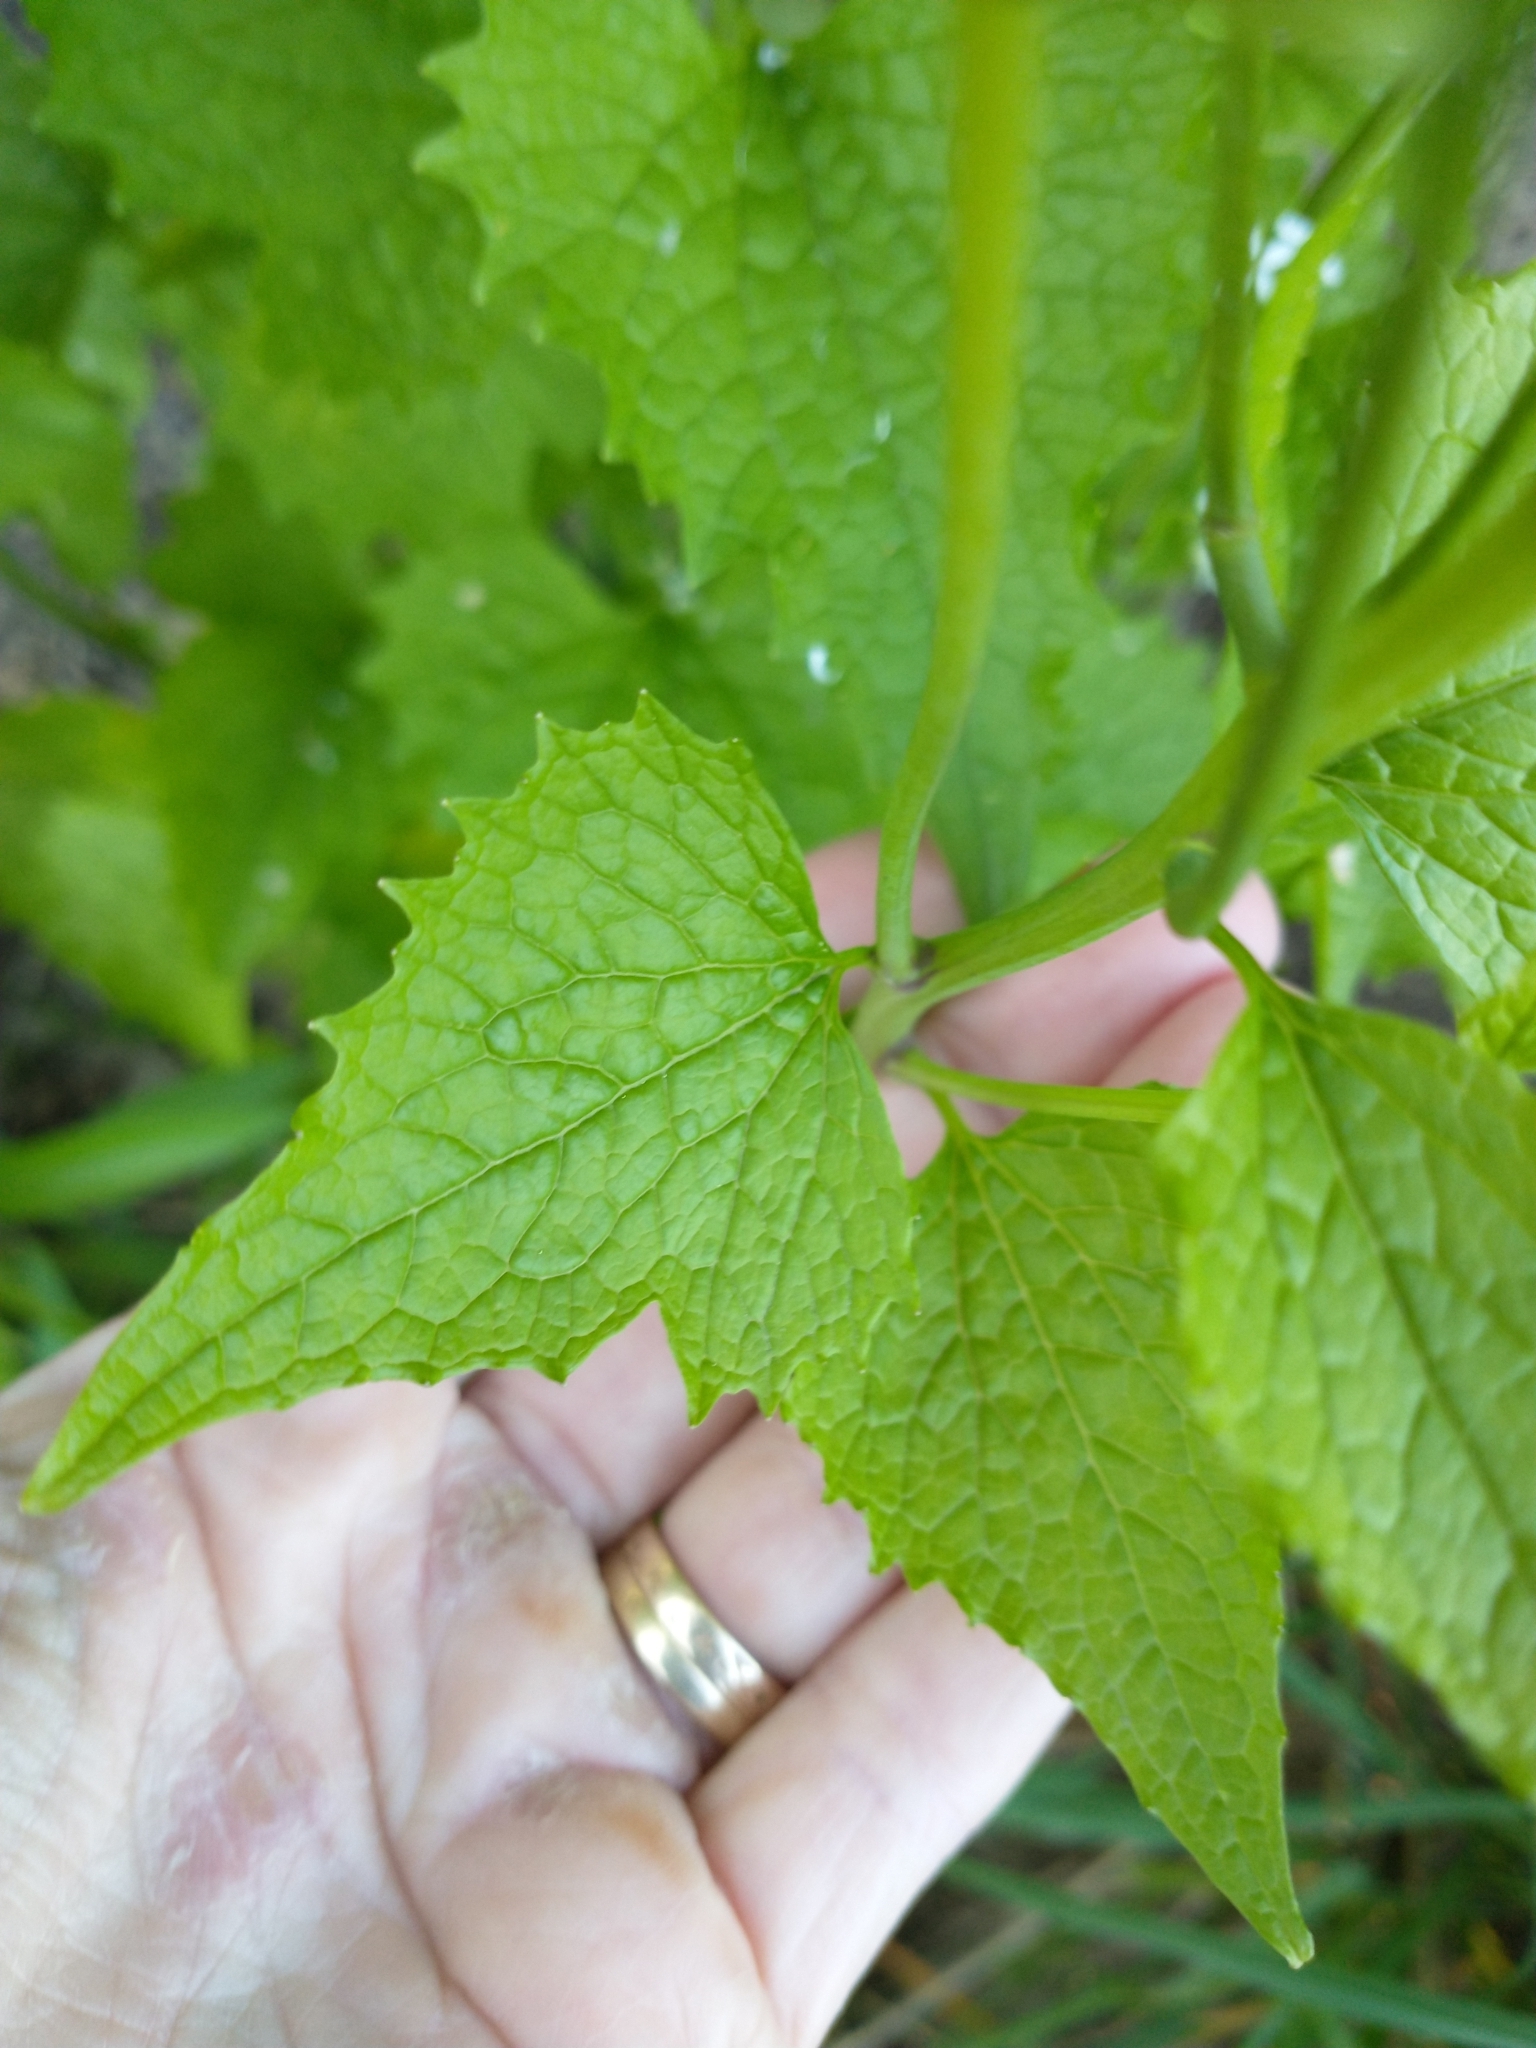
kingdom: Plantae
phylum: Tracheophyta
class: Magnoliopsida
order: Brassicales
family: Brassicaceae
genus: Alliaria
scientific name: Alliaria petiolata
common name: Garlic mustard
